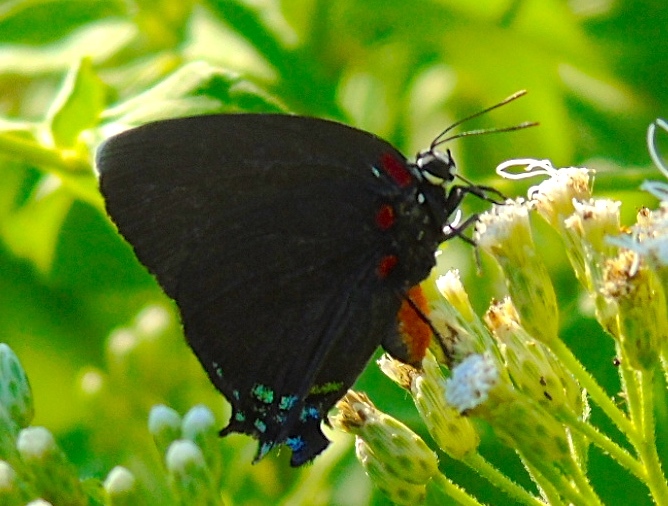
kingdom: Animalia
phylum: Arthropoda
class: Insecta
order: Lepidoptera
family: Lycaenidae
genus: Atlides
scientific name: Atlides
